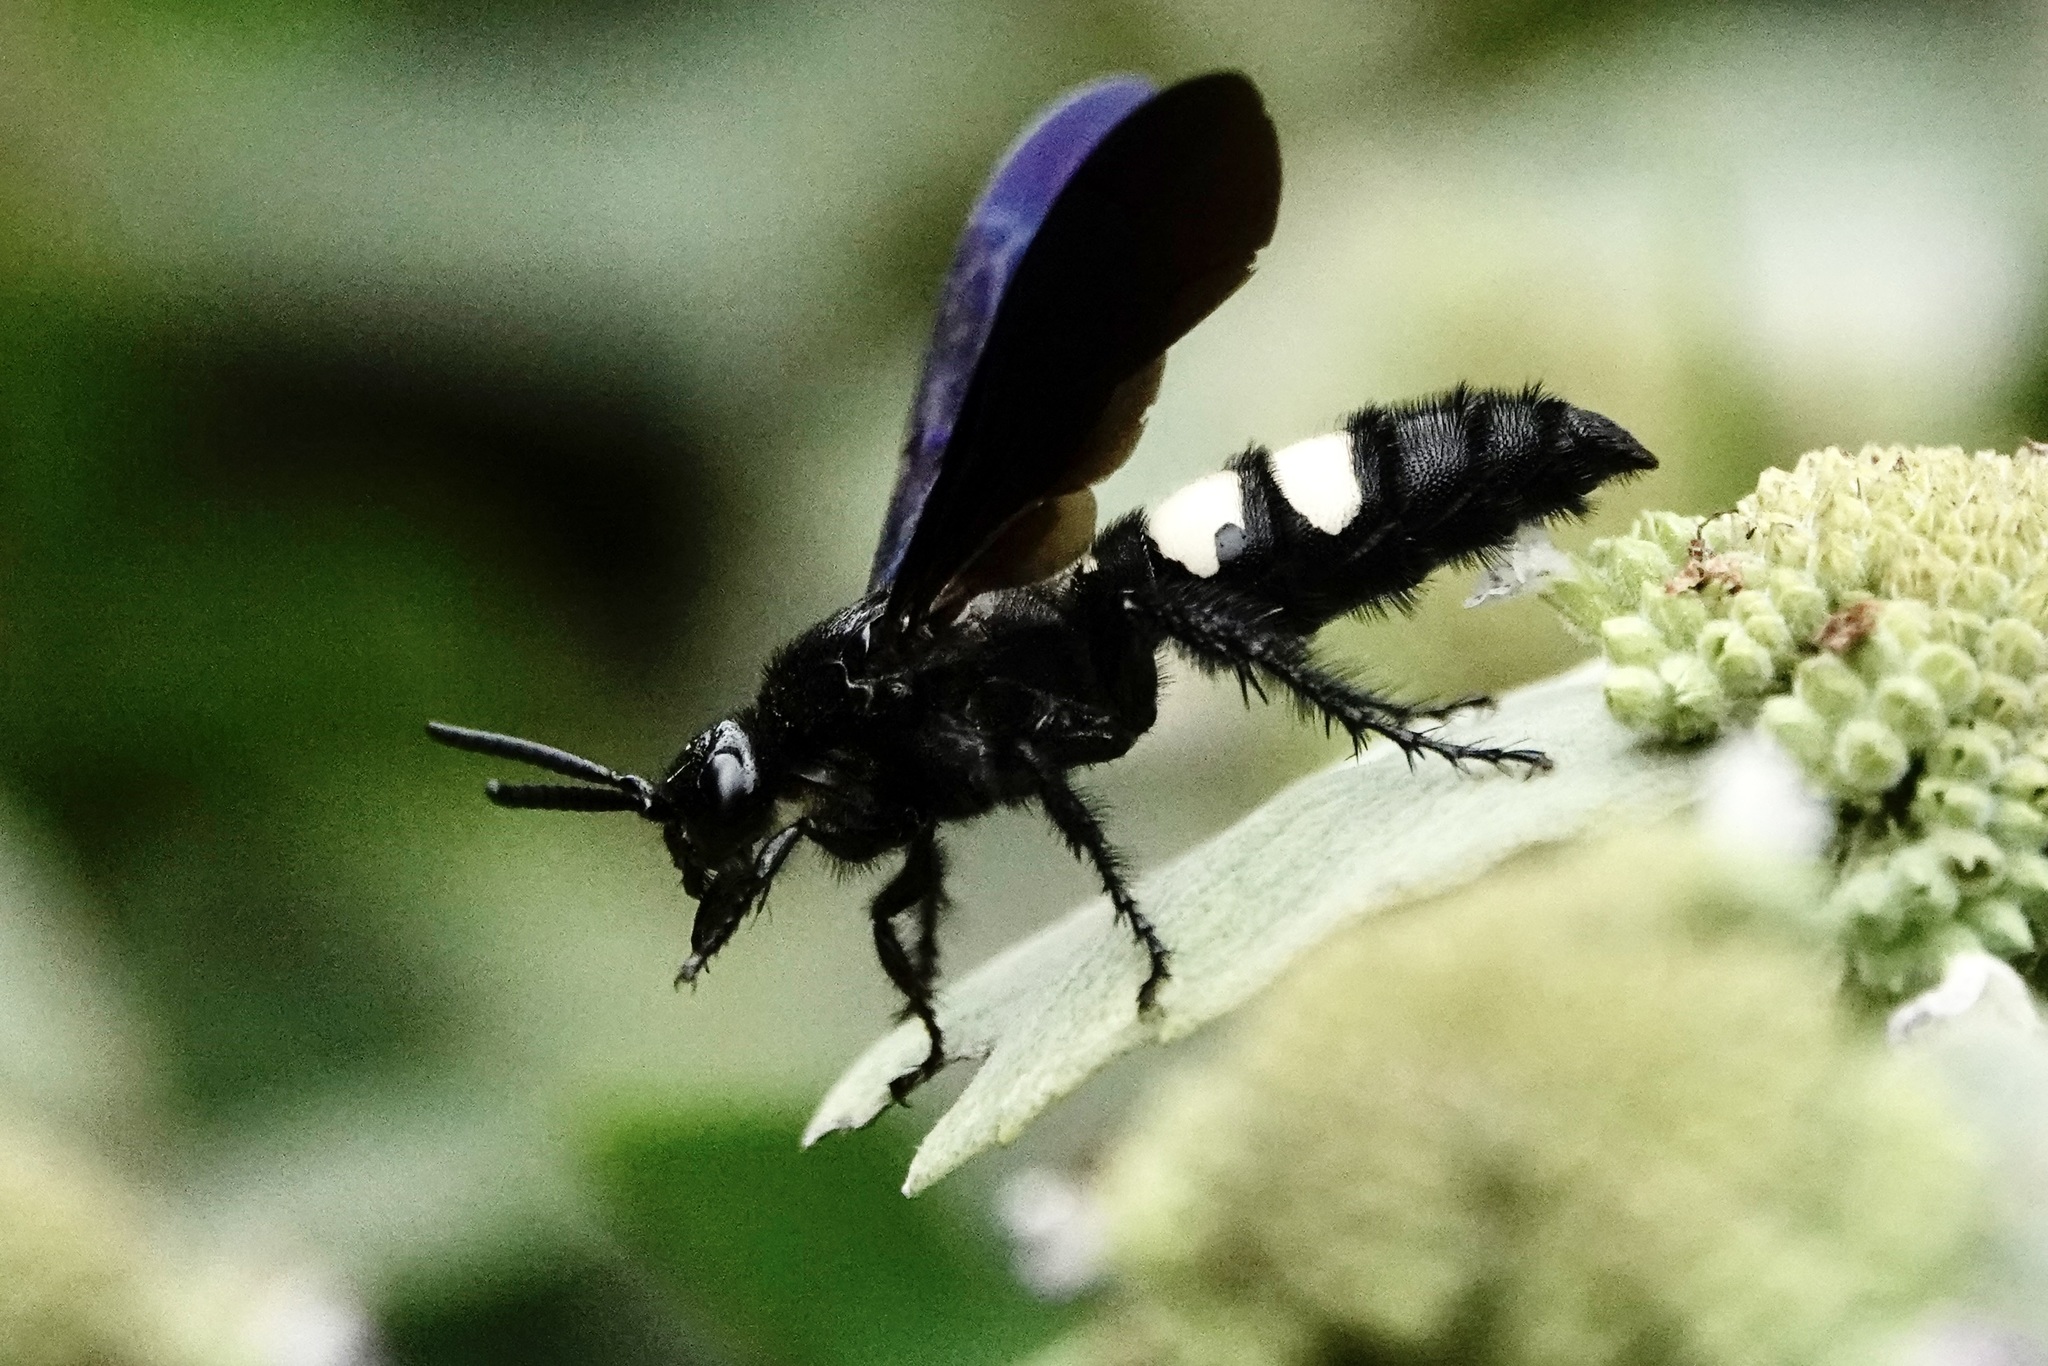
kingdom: Animalia
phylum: Arthropoda
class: Insecta
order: Hymenoptera
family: Scoliidae
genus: Scolia
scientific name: Scolia bicincta
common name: Double-banded scoliid wasp
